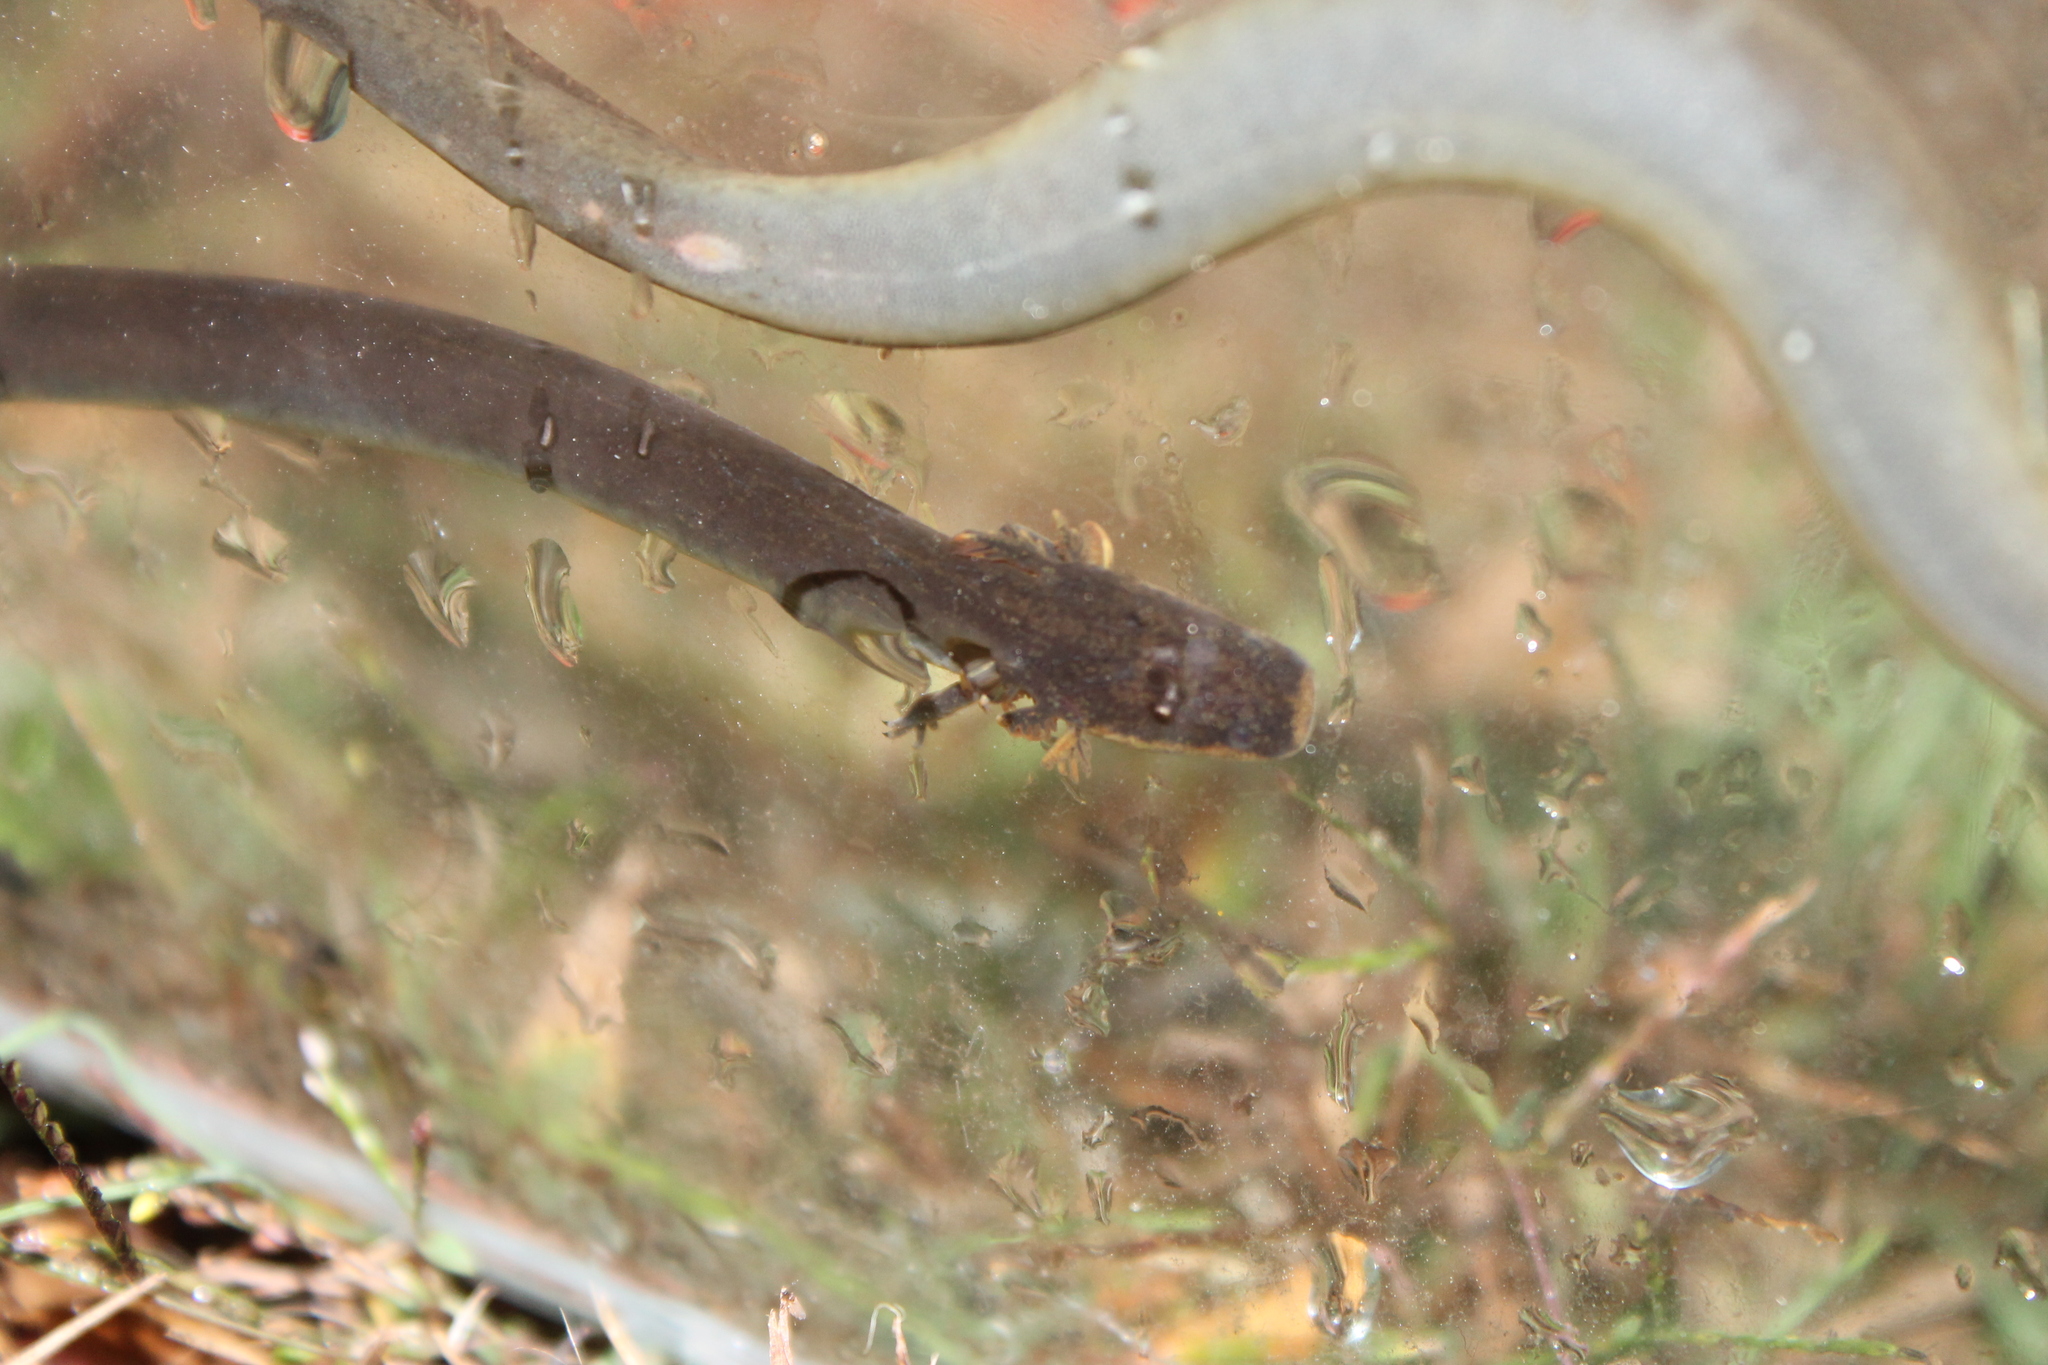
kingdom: Animalia
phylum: Chordata
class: Amphibia
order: Caudata
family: Sirenidae
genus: Siren
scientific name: Siren intermedia
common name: Lesser siren
